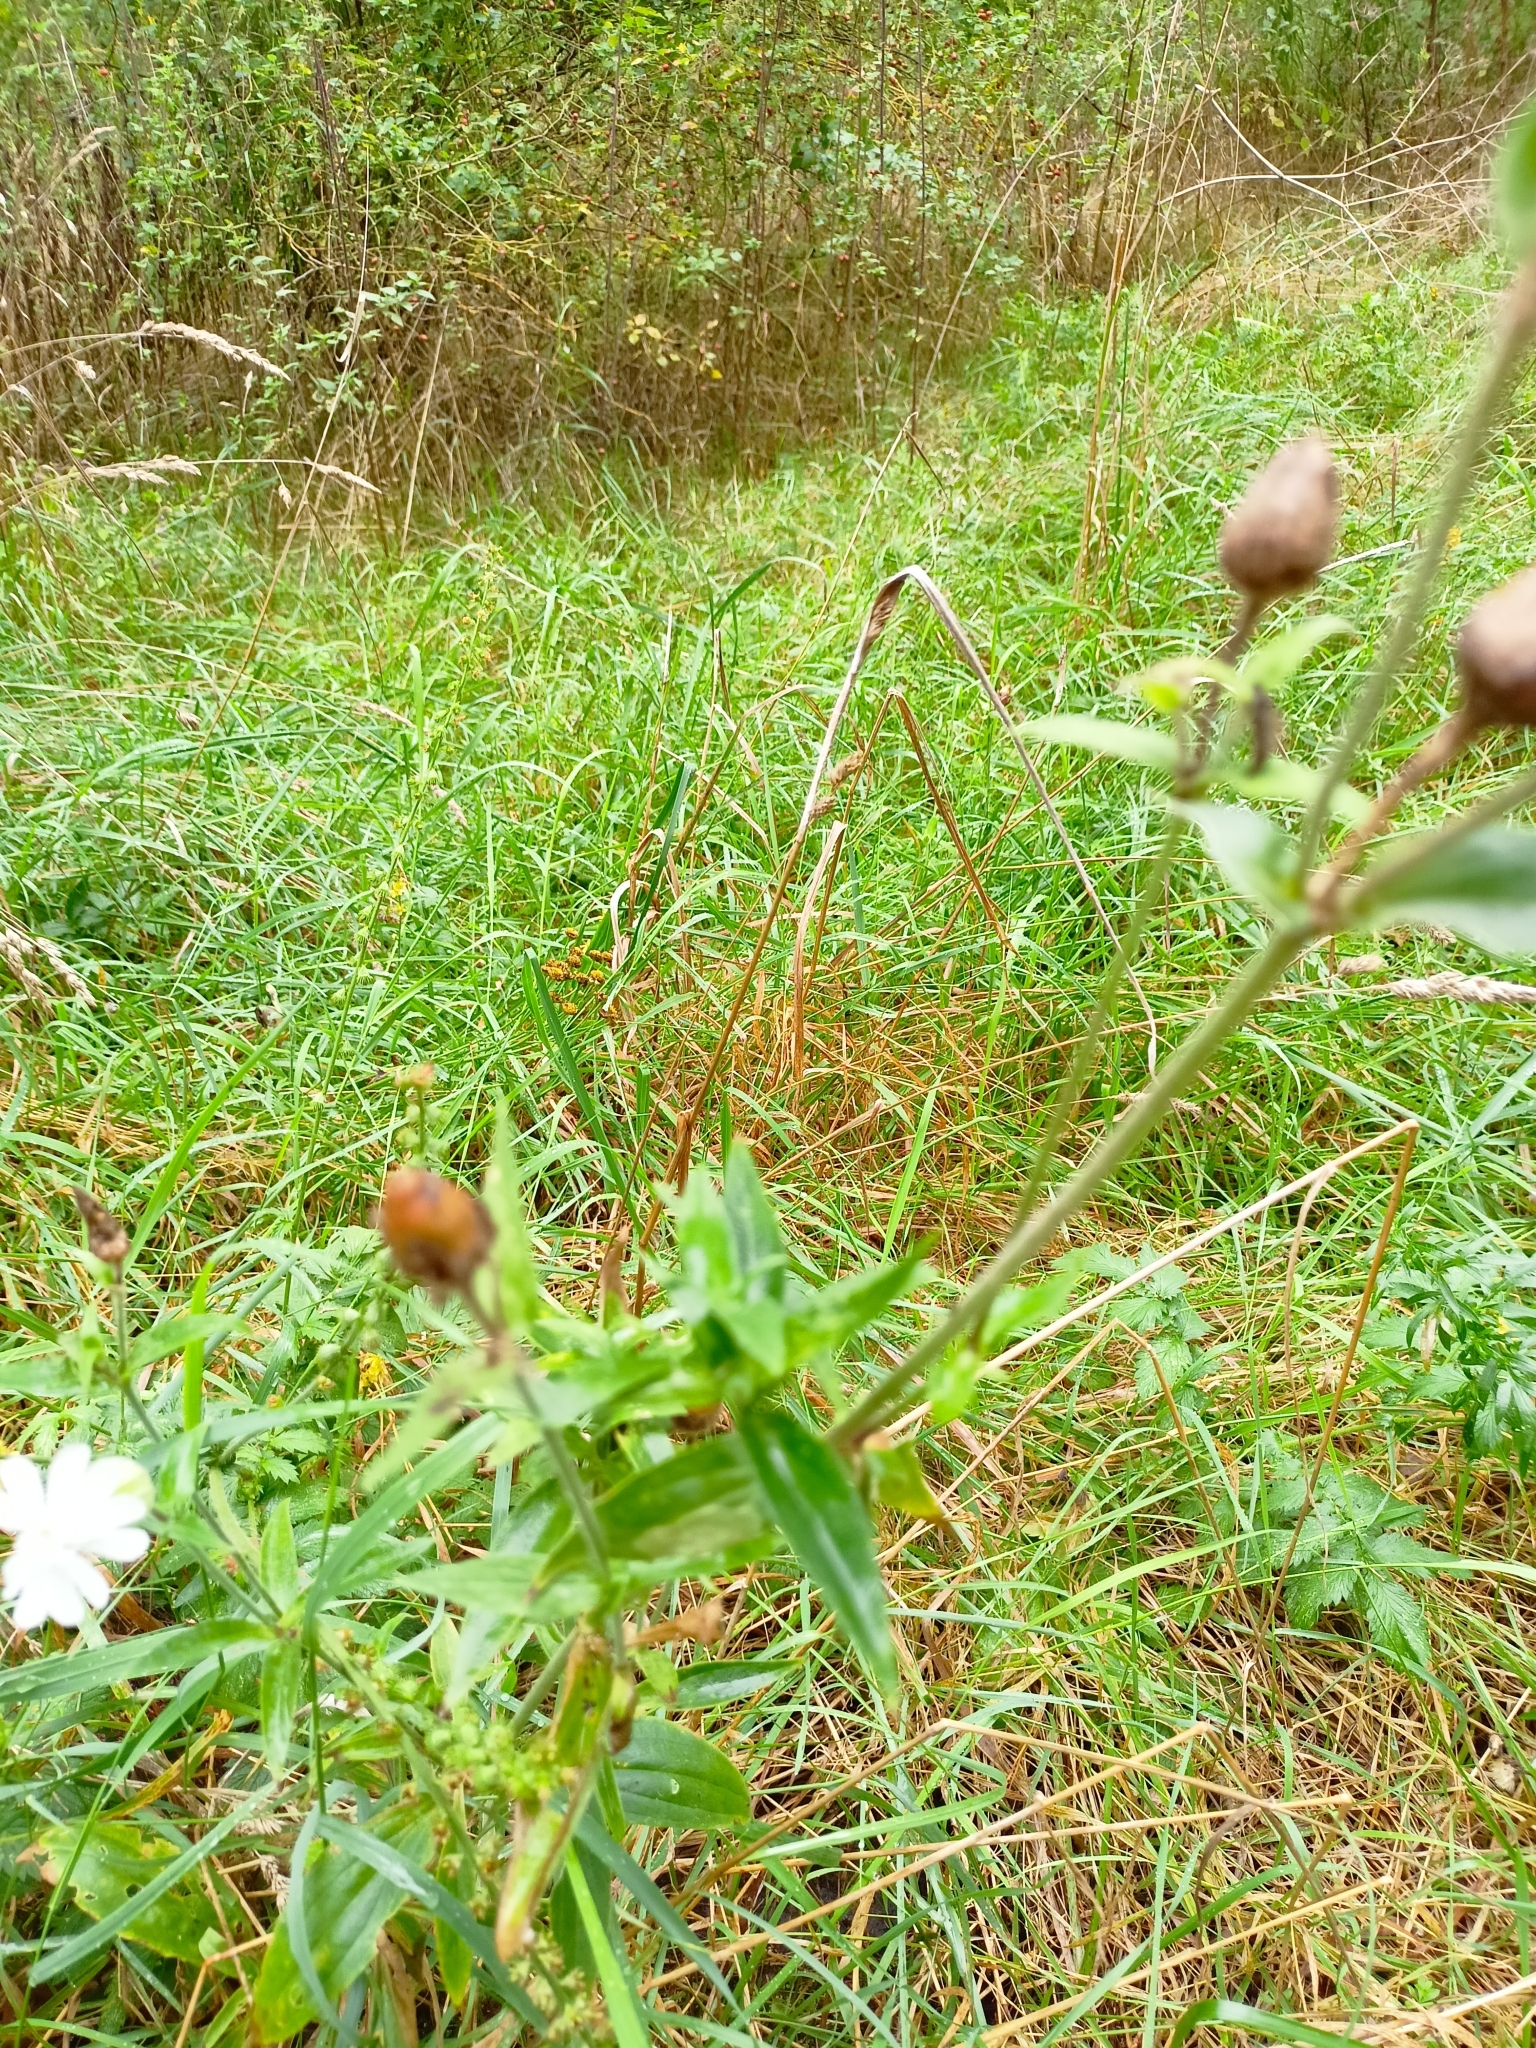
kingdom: Plantae
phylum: Tracheophyta
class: Magnoliopsida
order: Caryophyllales
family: Caryophyllaceae
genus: Silene
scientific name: Silene latifolia
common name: White campion
